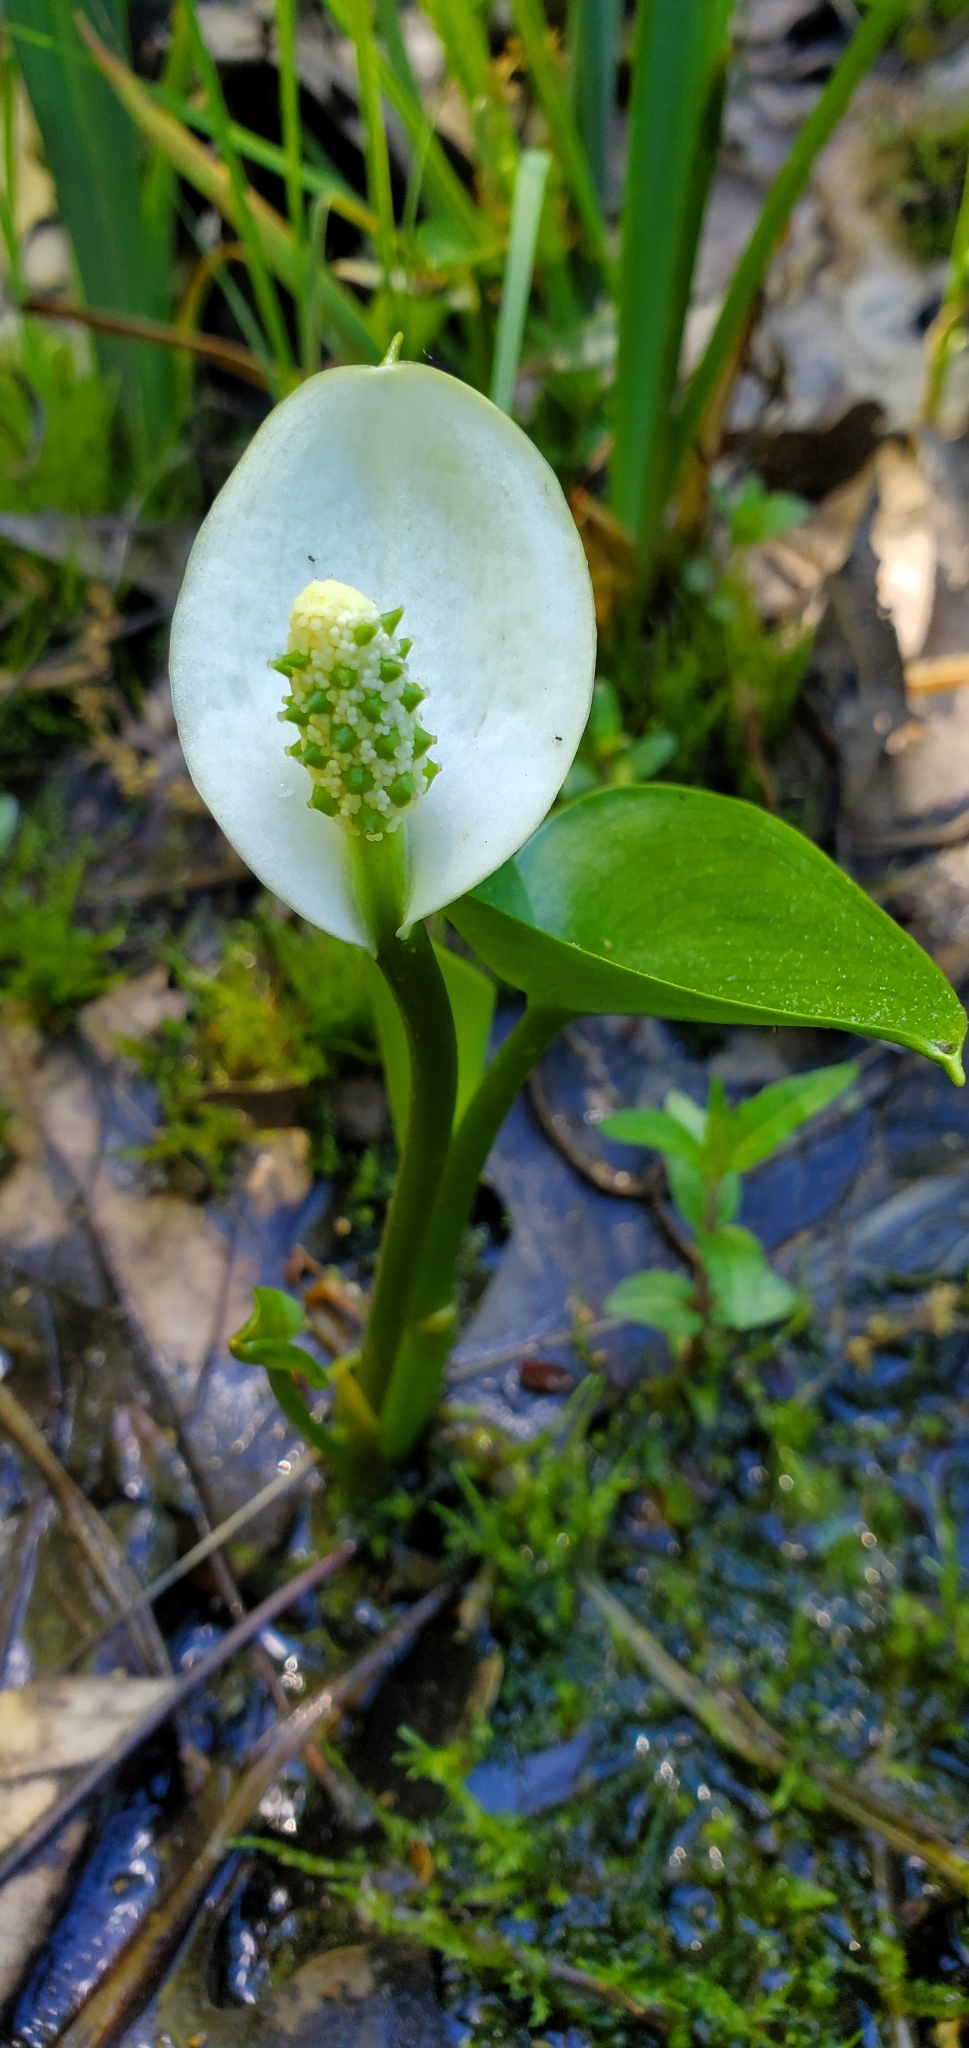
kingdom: Plantae
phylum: Tracheophyta
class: Liliopsida
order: Alismatales
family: Araceae
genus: Calla
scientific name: Calla palustris
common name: Bog arum
